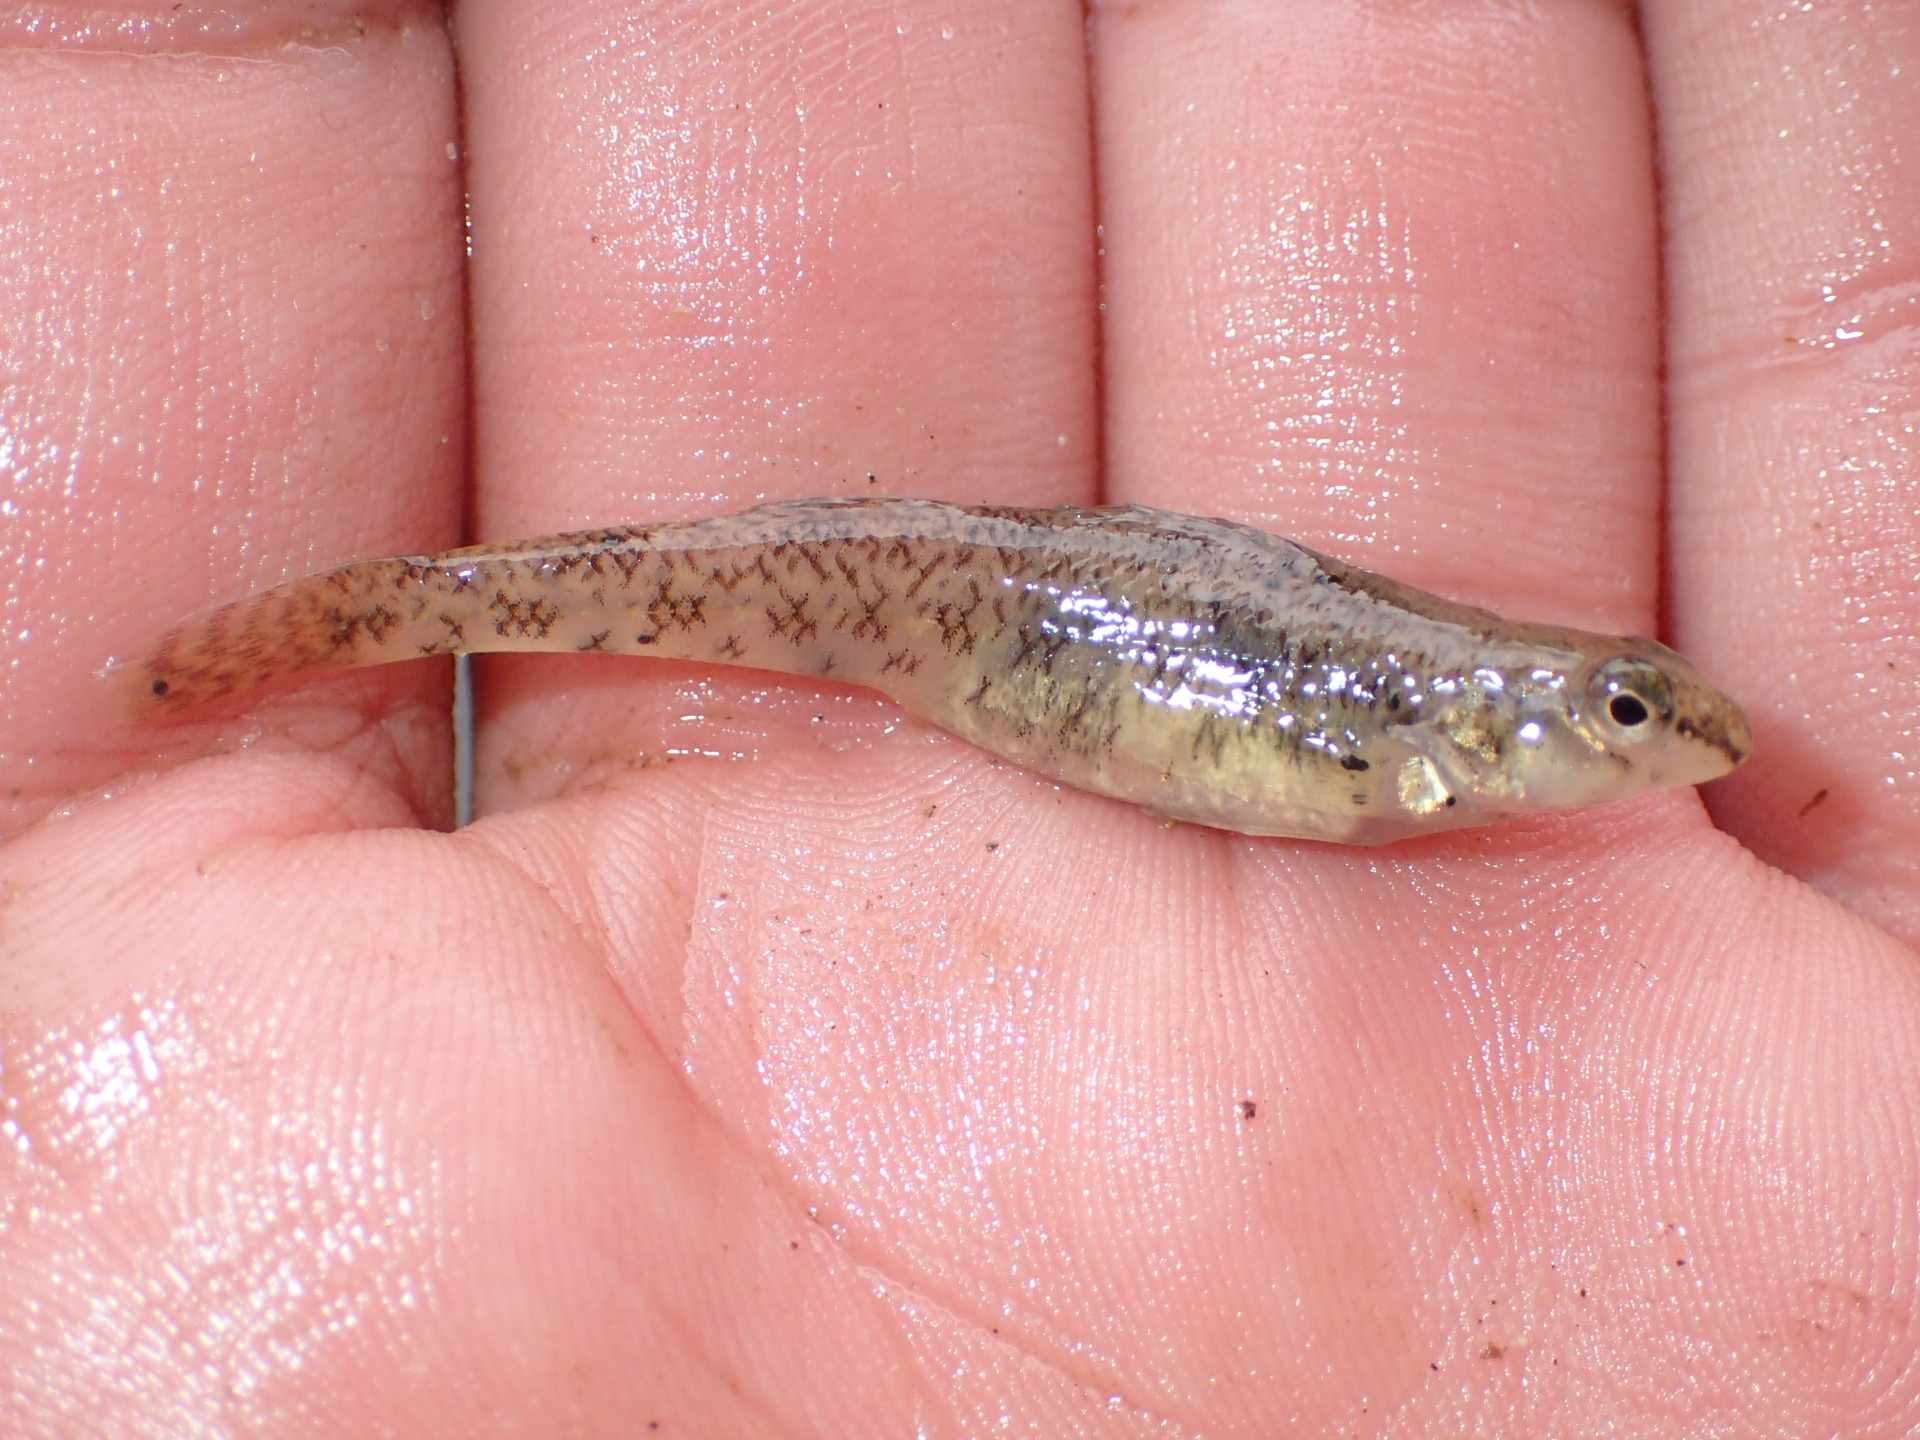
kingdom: Animalia
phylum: Chordata
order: Perciformes
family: Percidae
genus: Etheostoma
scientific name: Etheostoma nigrum
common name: Johnny darter
